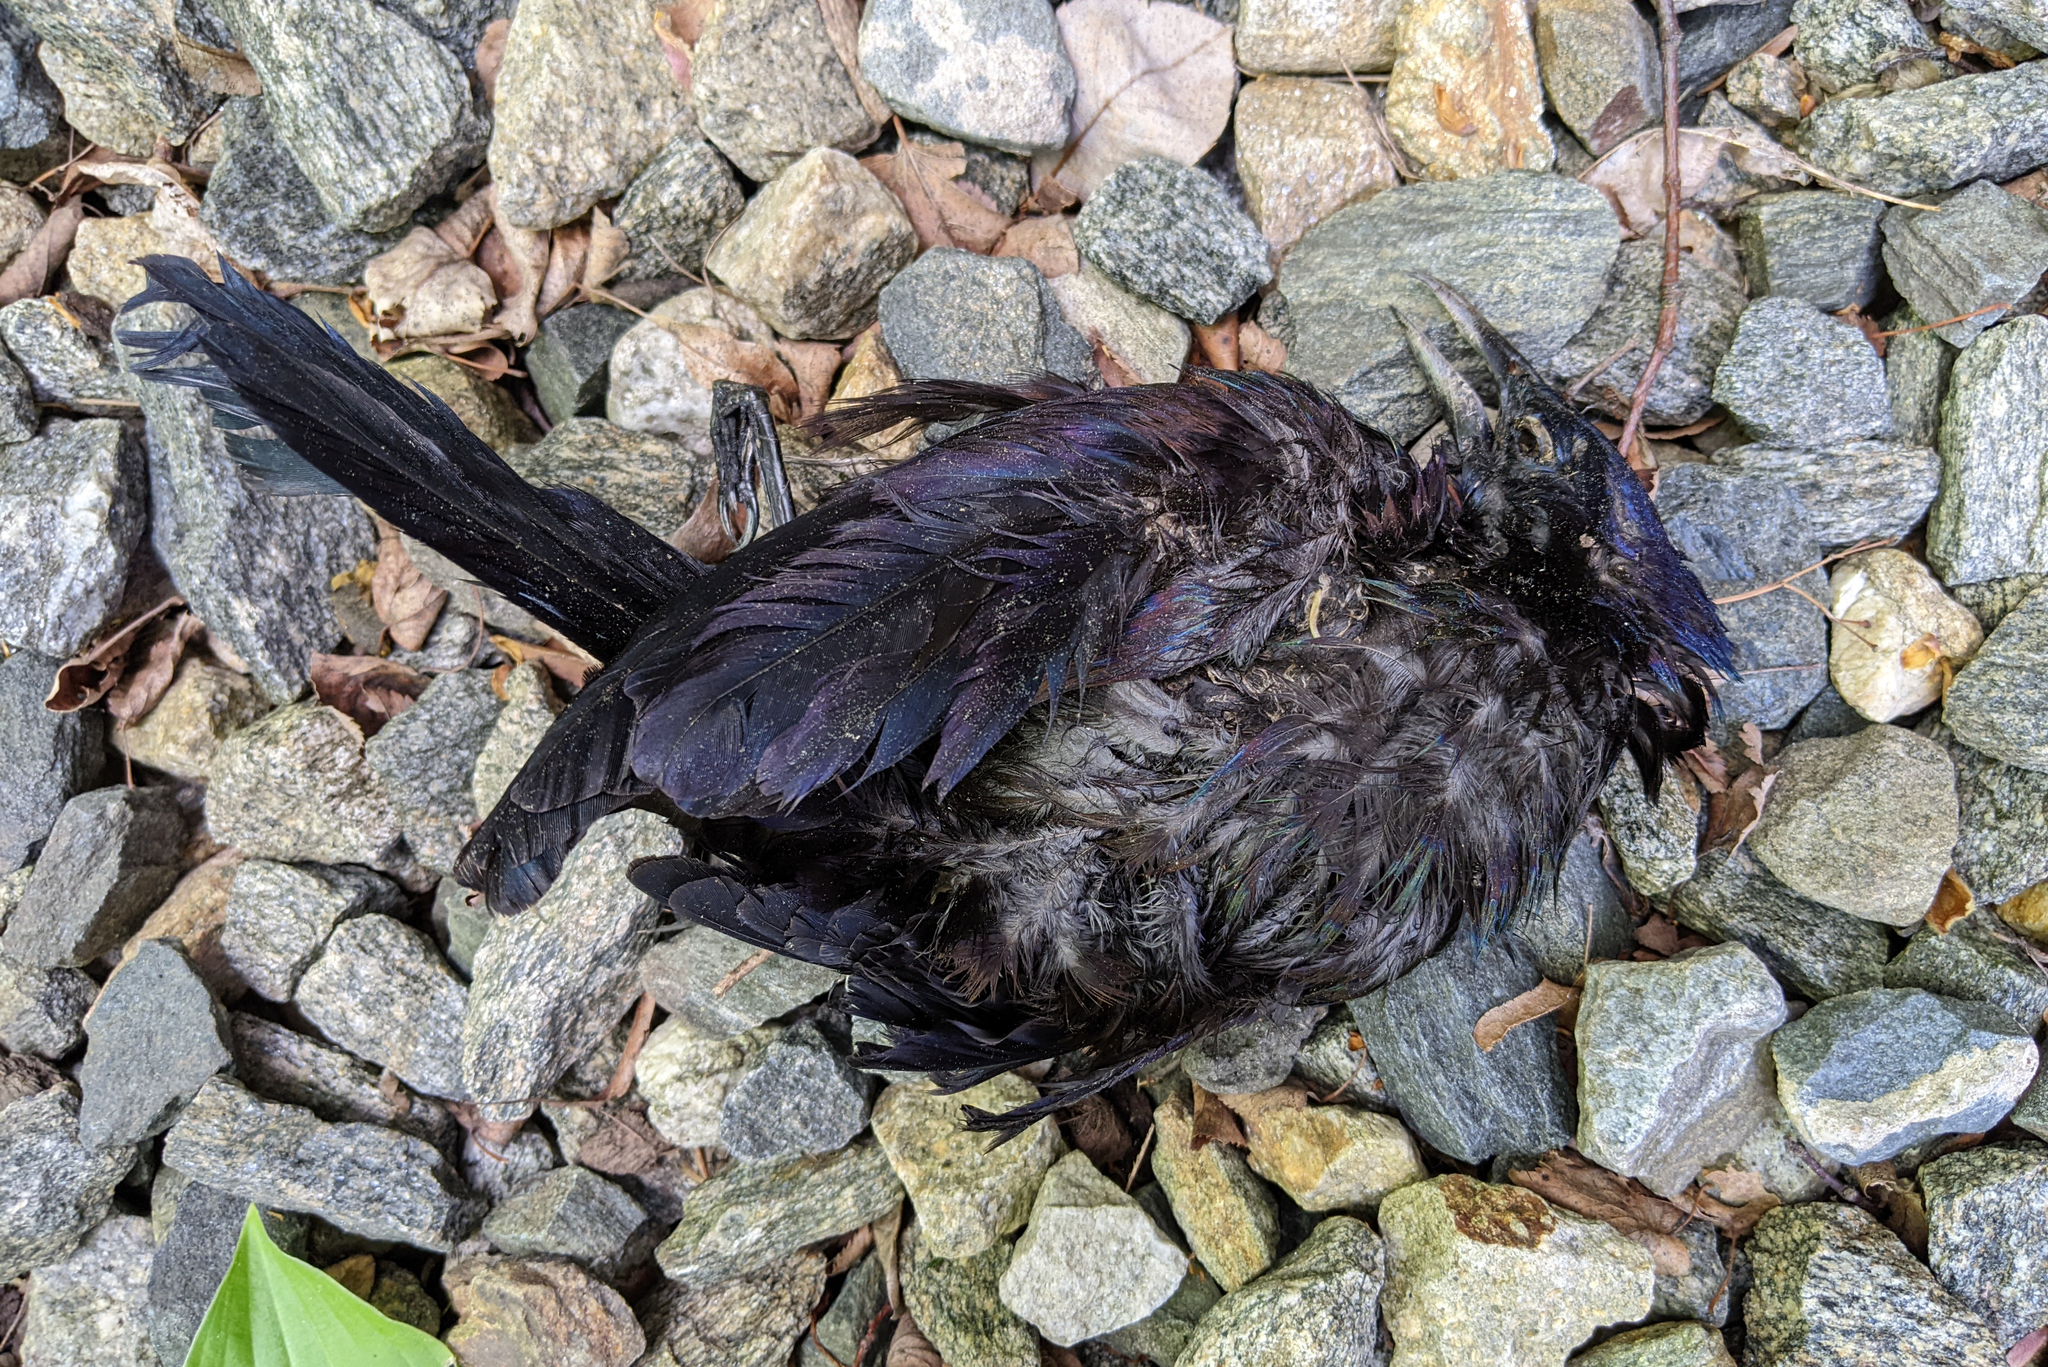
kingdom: Animalia
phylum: Chordata
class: Aves
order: Passeriformes
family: Icteridae
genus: Quiscalus
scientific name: Quiscalus quiscula
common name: Common grackle
